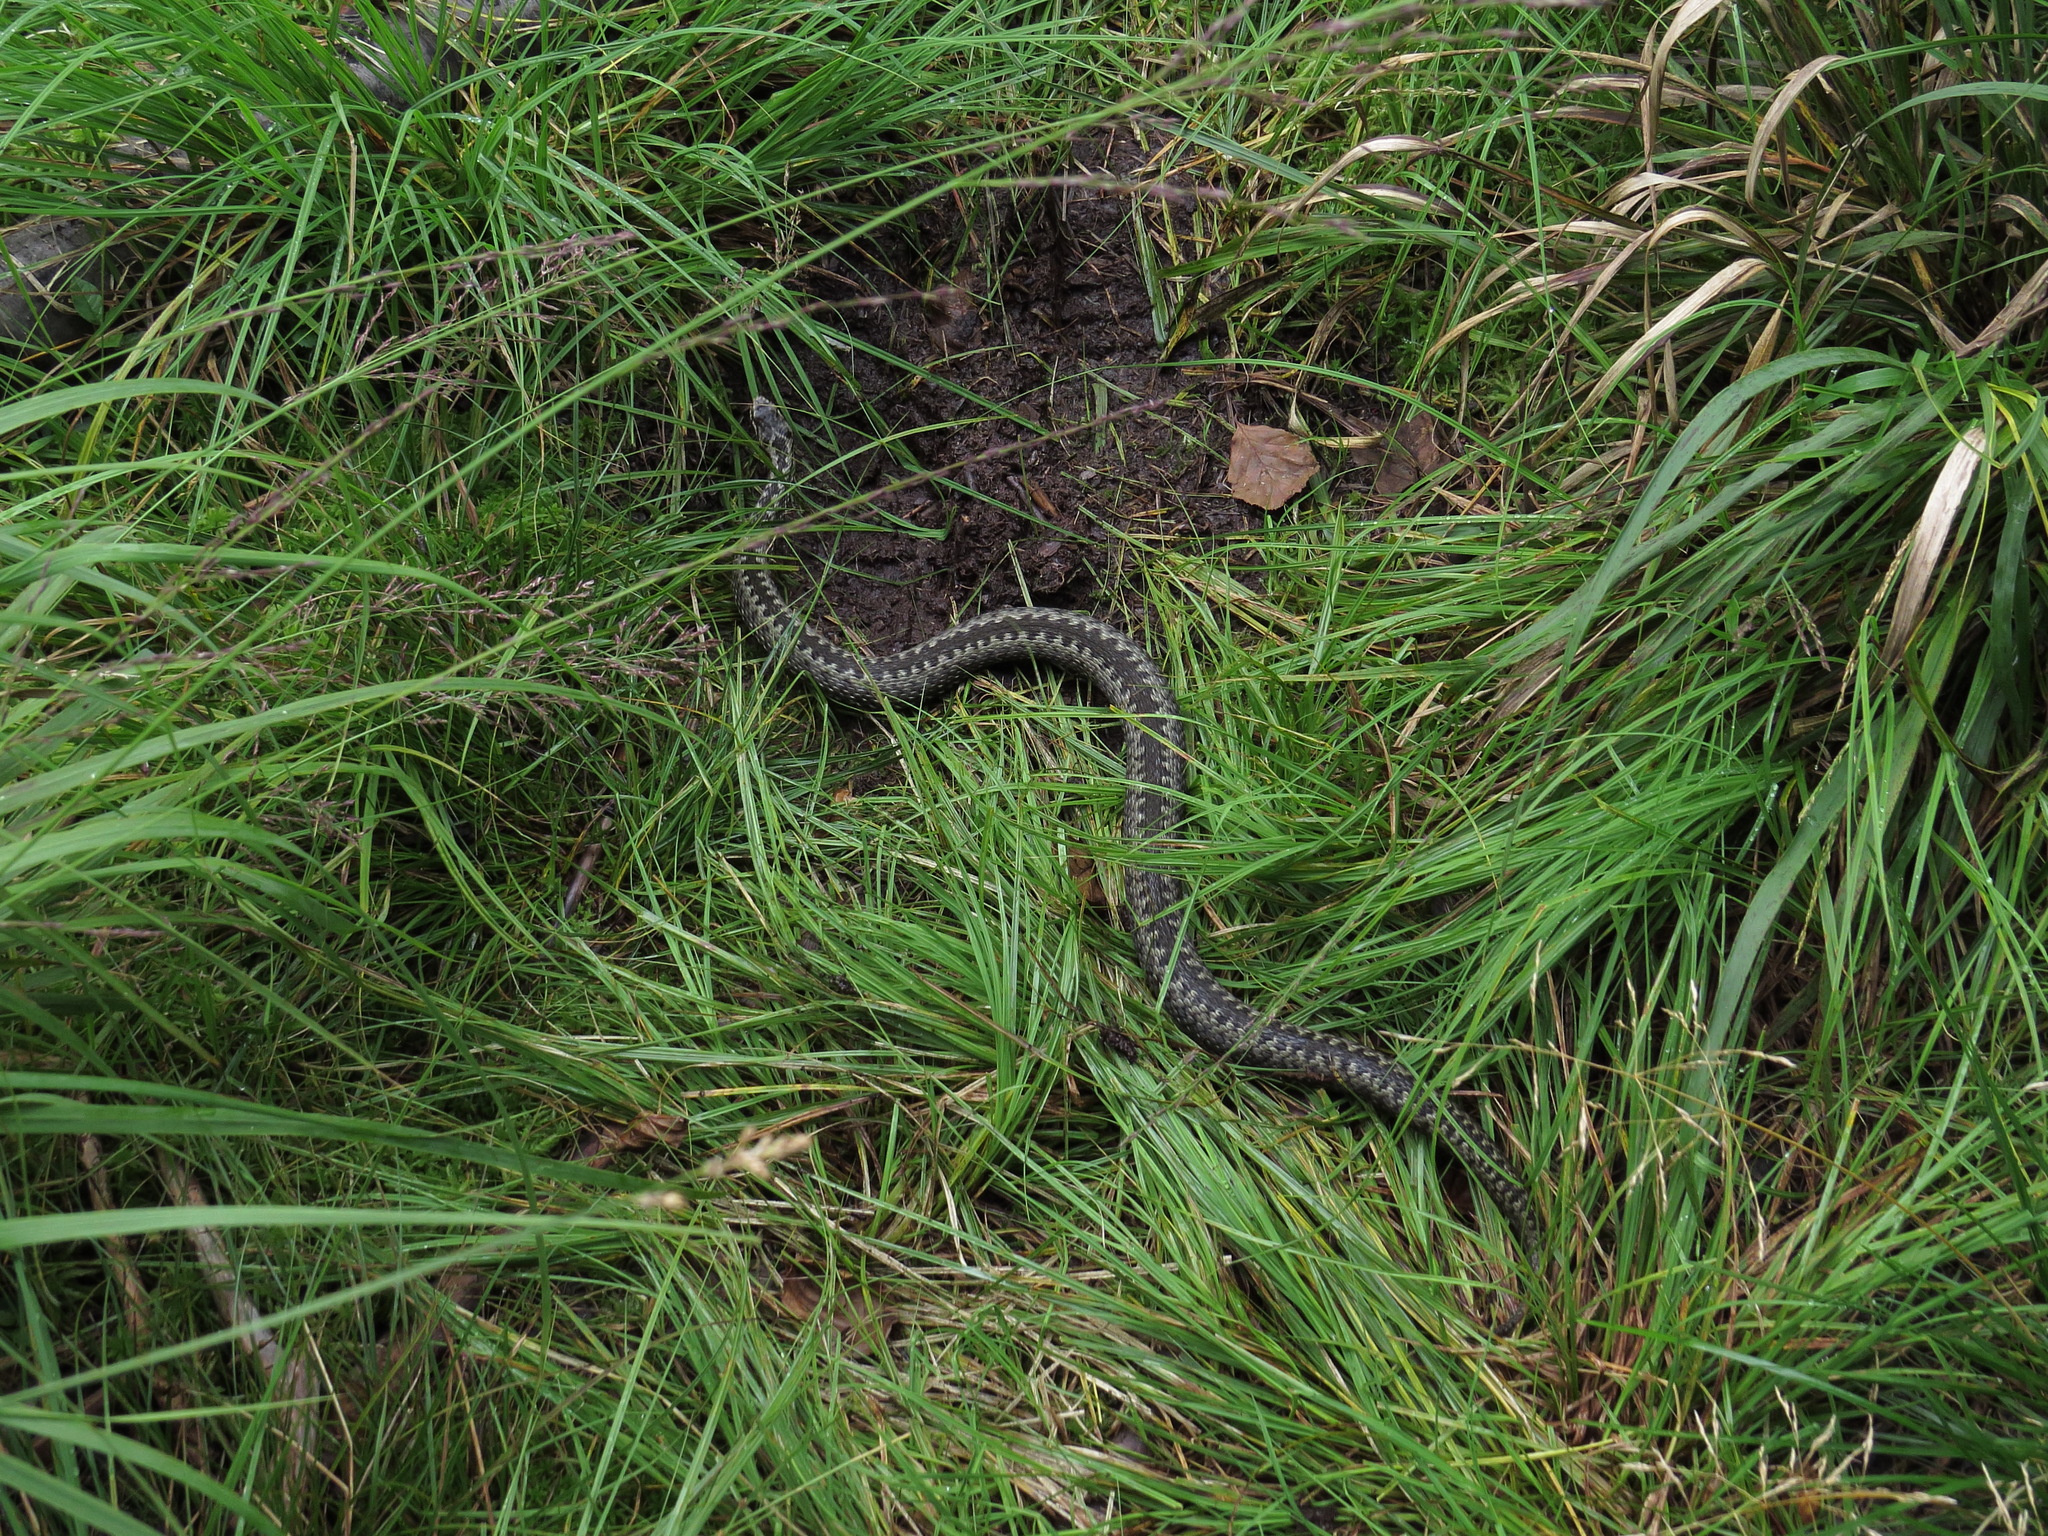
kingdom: Animalia
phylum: Chordata
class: Squamata
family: Viperidae
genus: Vipera
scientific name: Vipera berus
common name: Adder
